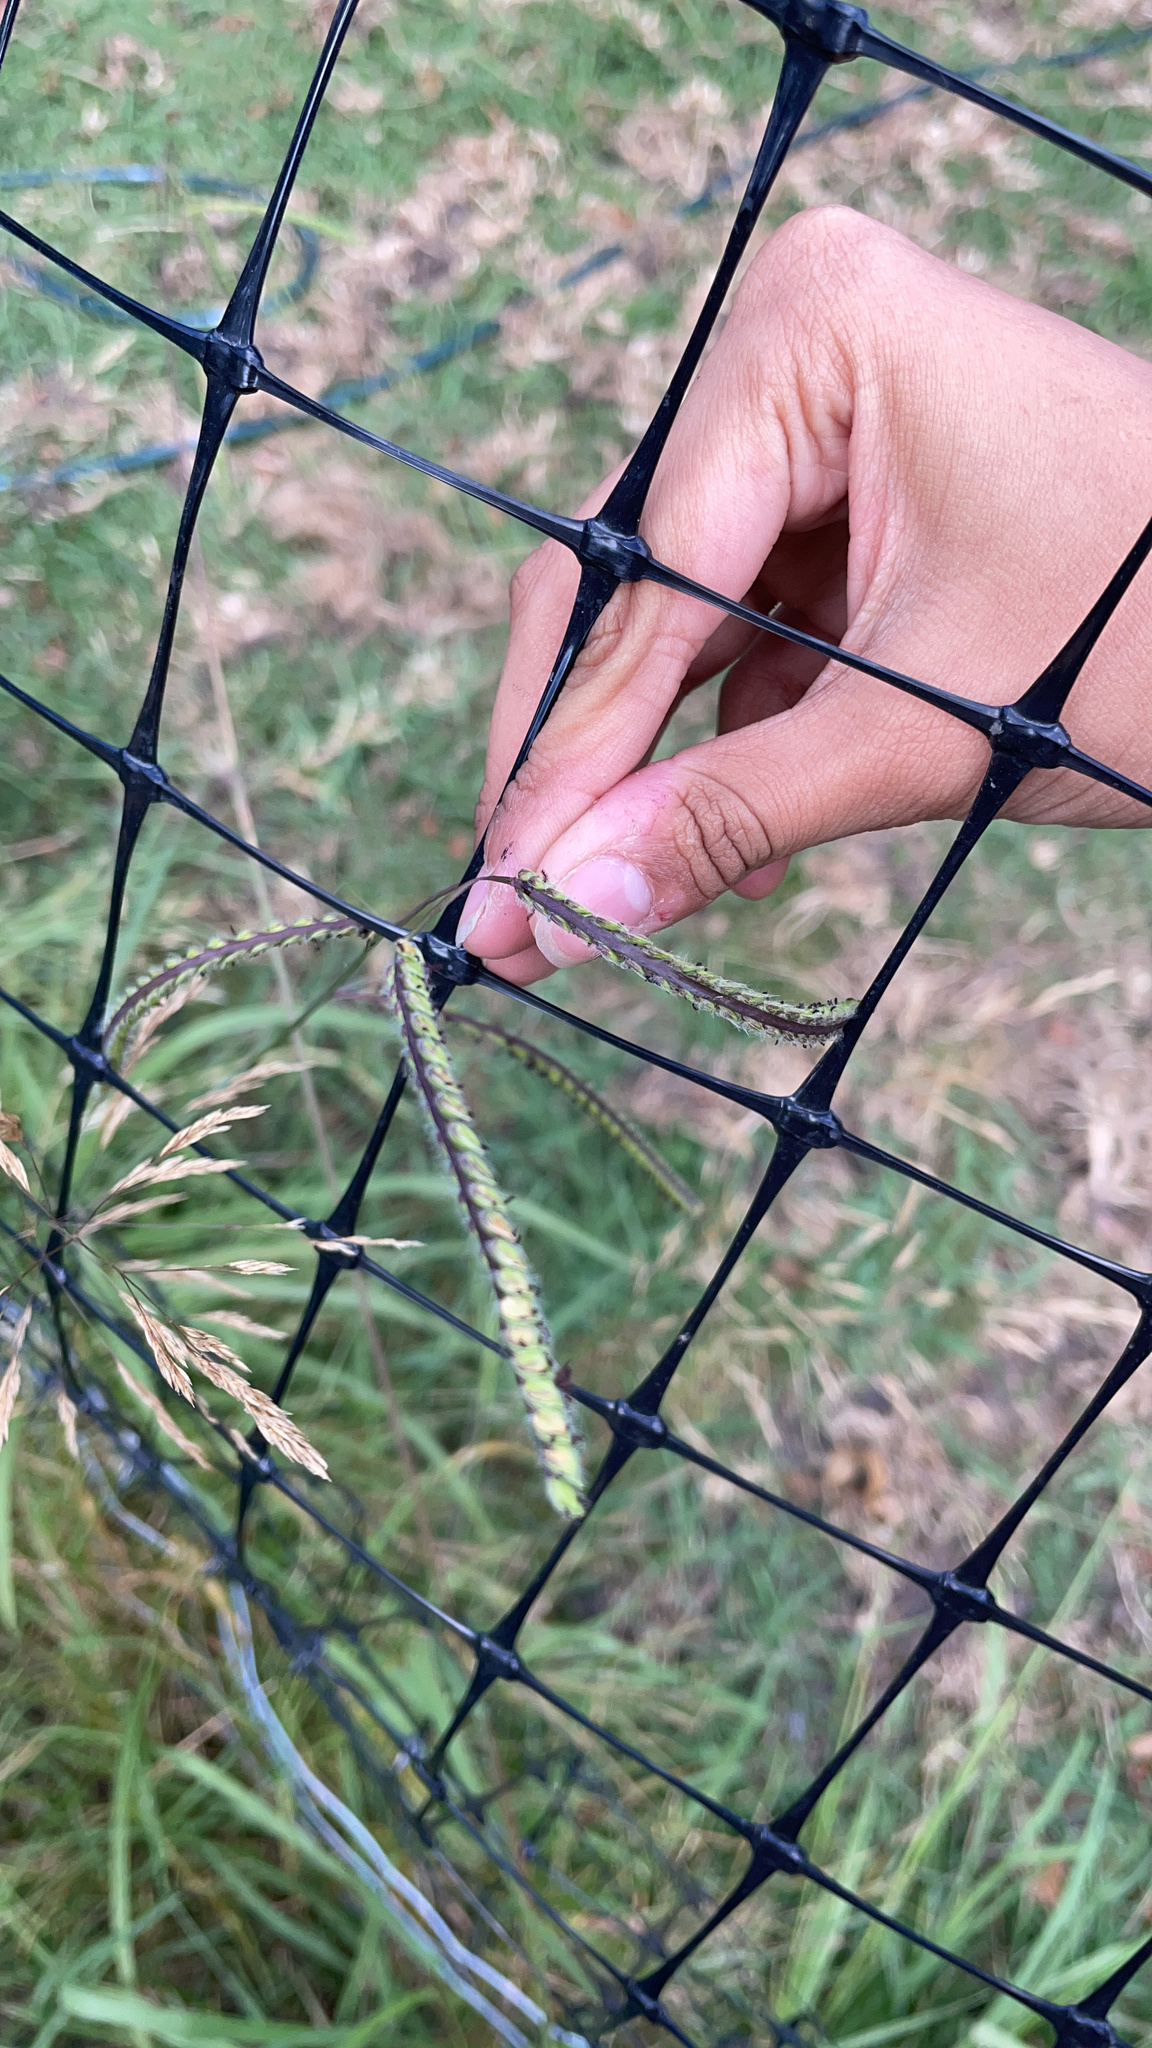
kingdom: Plantae
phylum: Tracheophyta
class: Liliopsida
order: Poales
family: Poaceae
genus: Paspalum
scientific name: Paspalum dilatatum
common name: Dallisgrass
